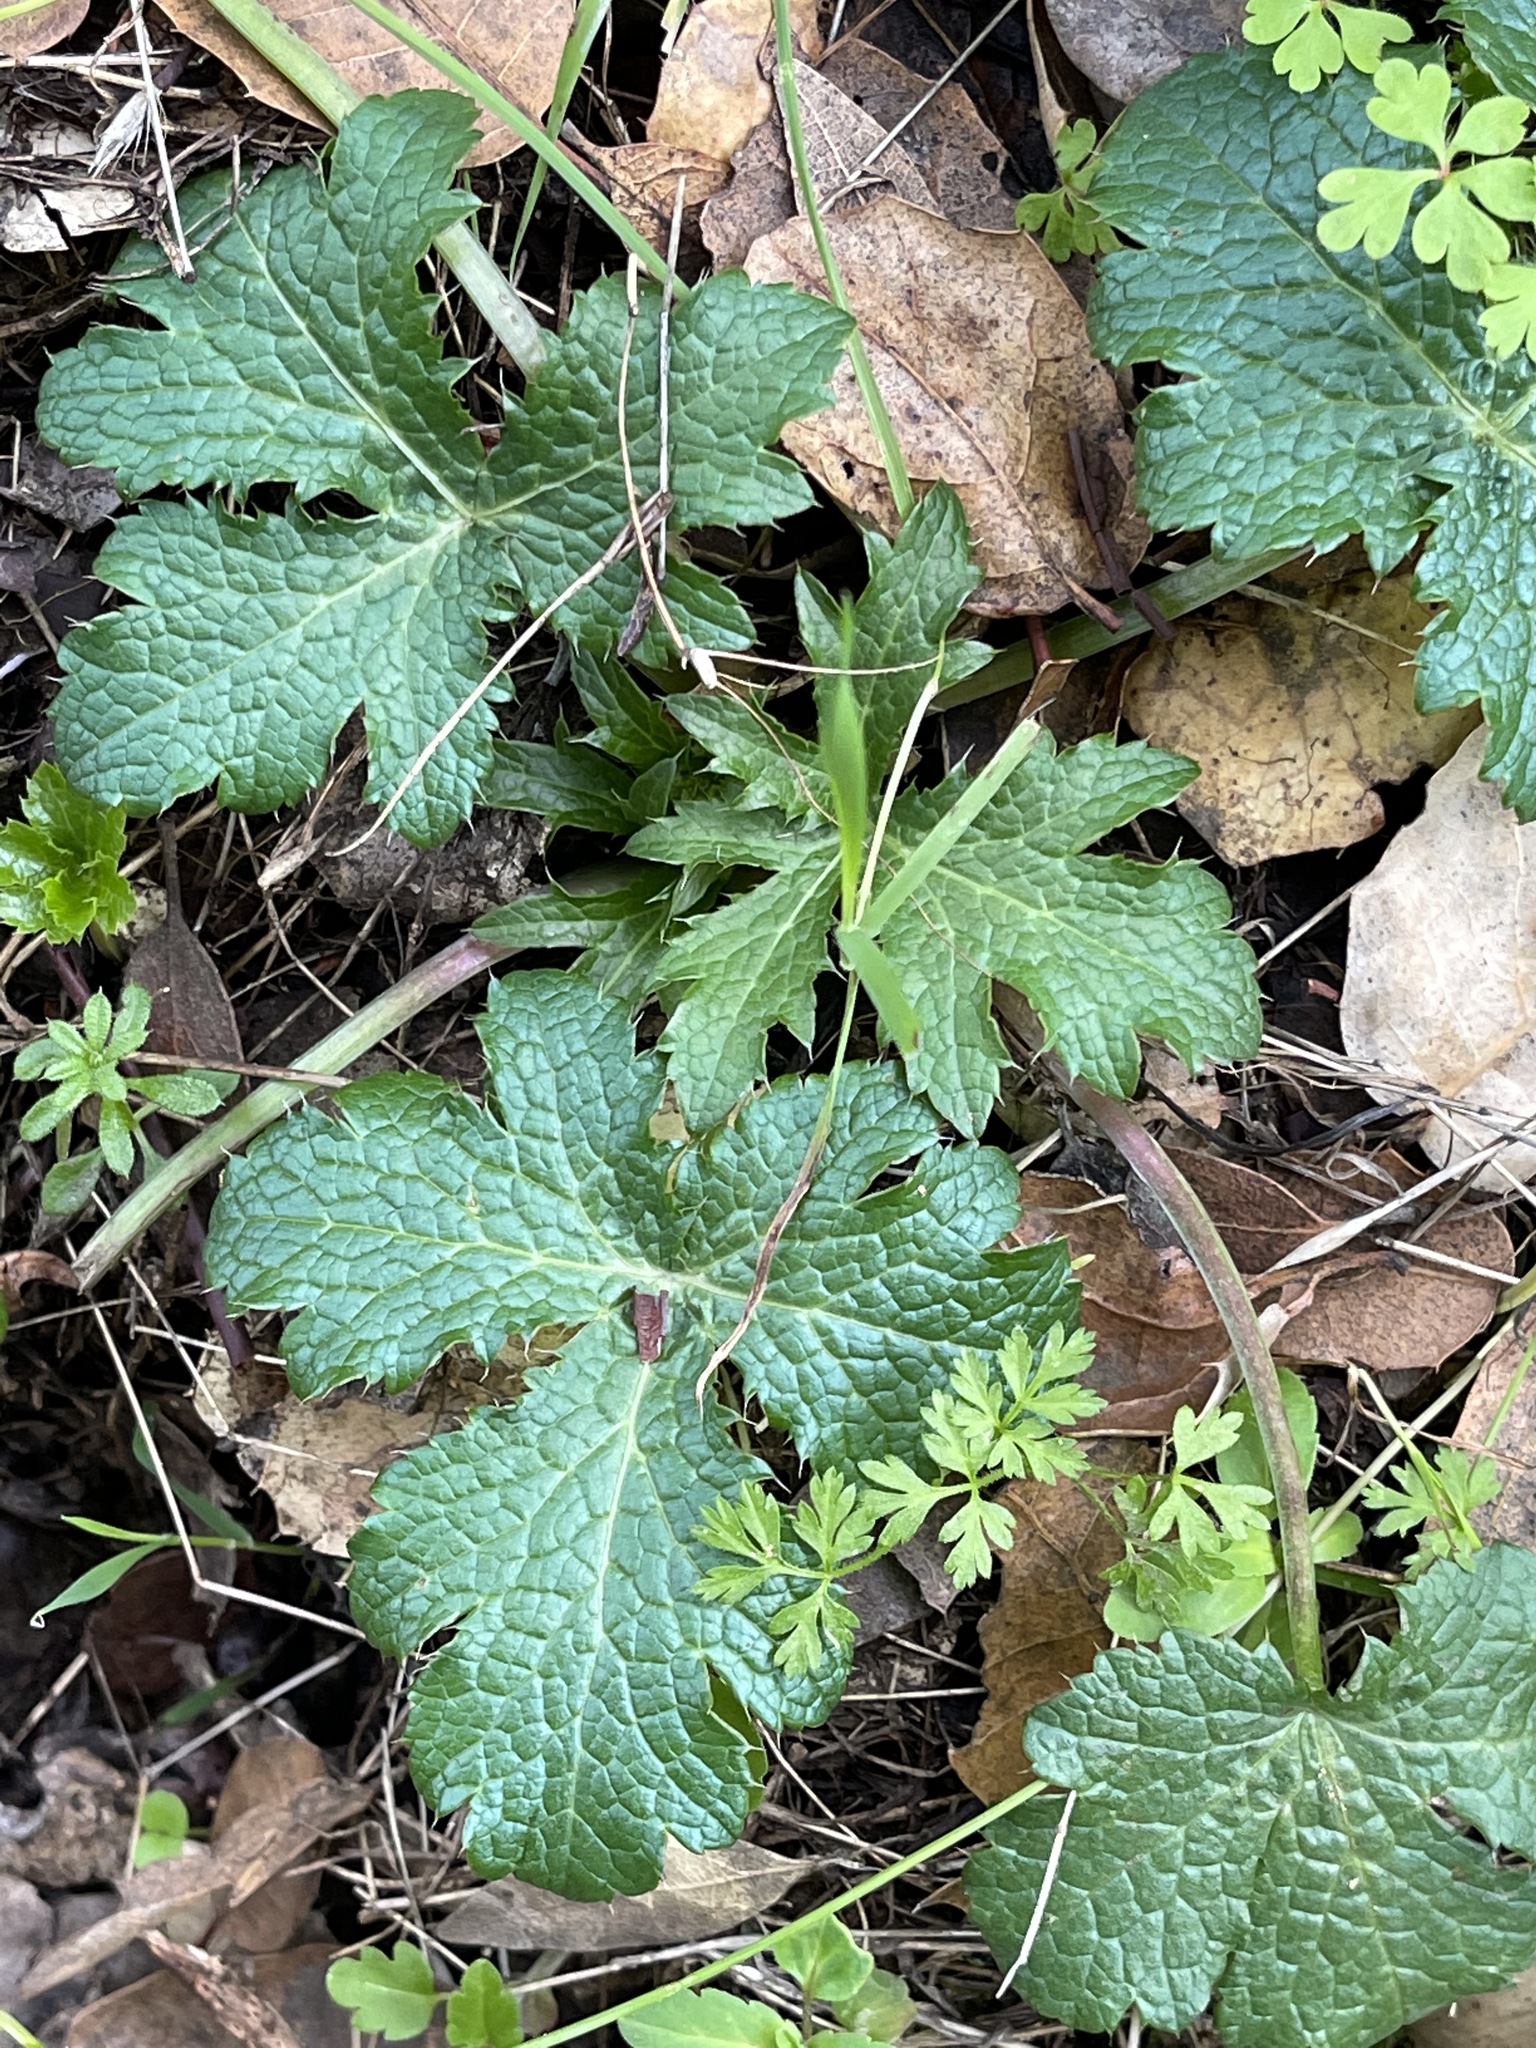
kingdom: Plantae
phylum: Tracheophyta
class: Magnoliopsida
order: Apiales
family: Apiaceae
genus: Sanicula
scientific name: Sanicula crassicaulis
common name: Western snakeroot
